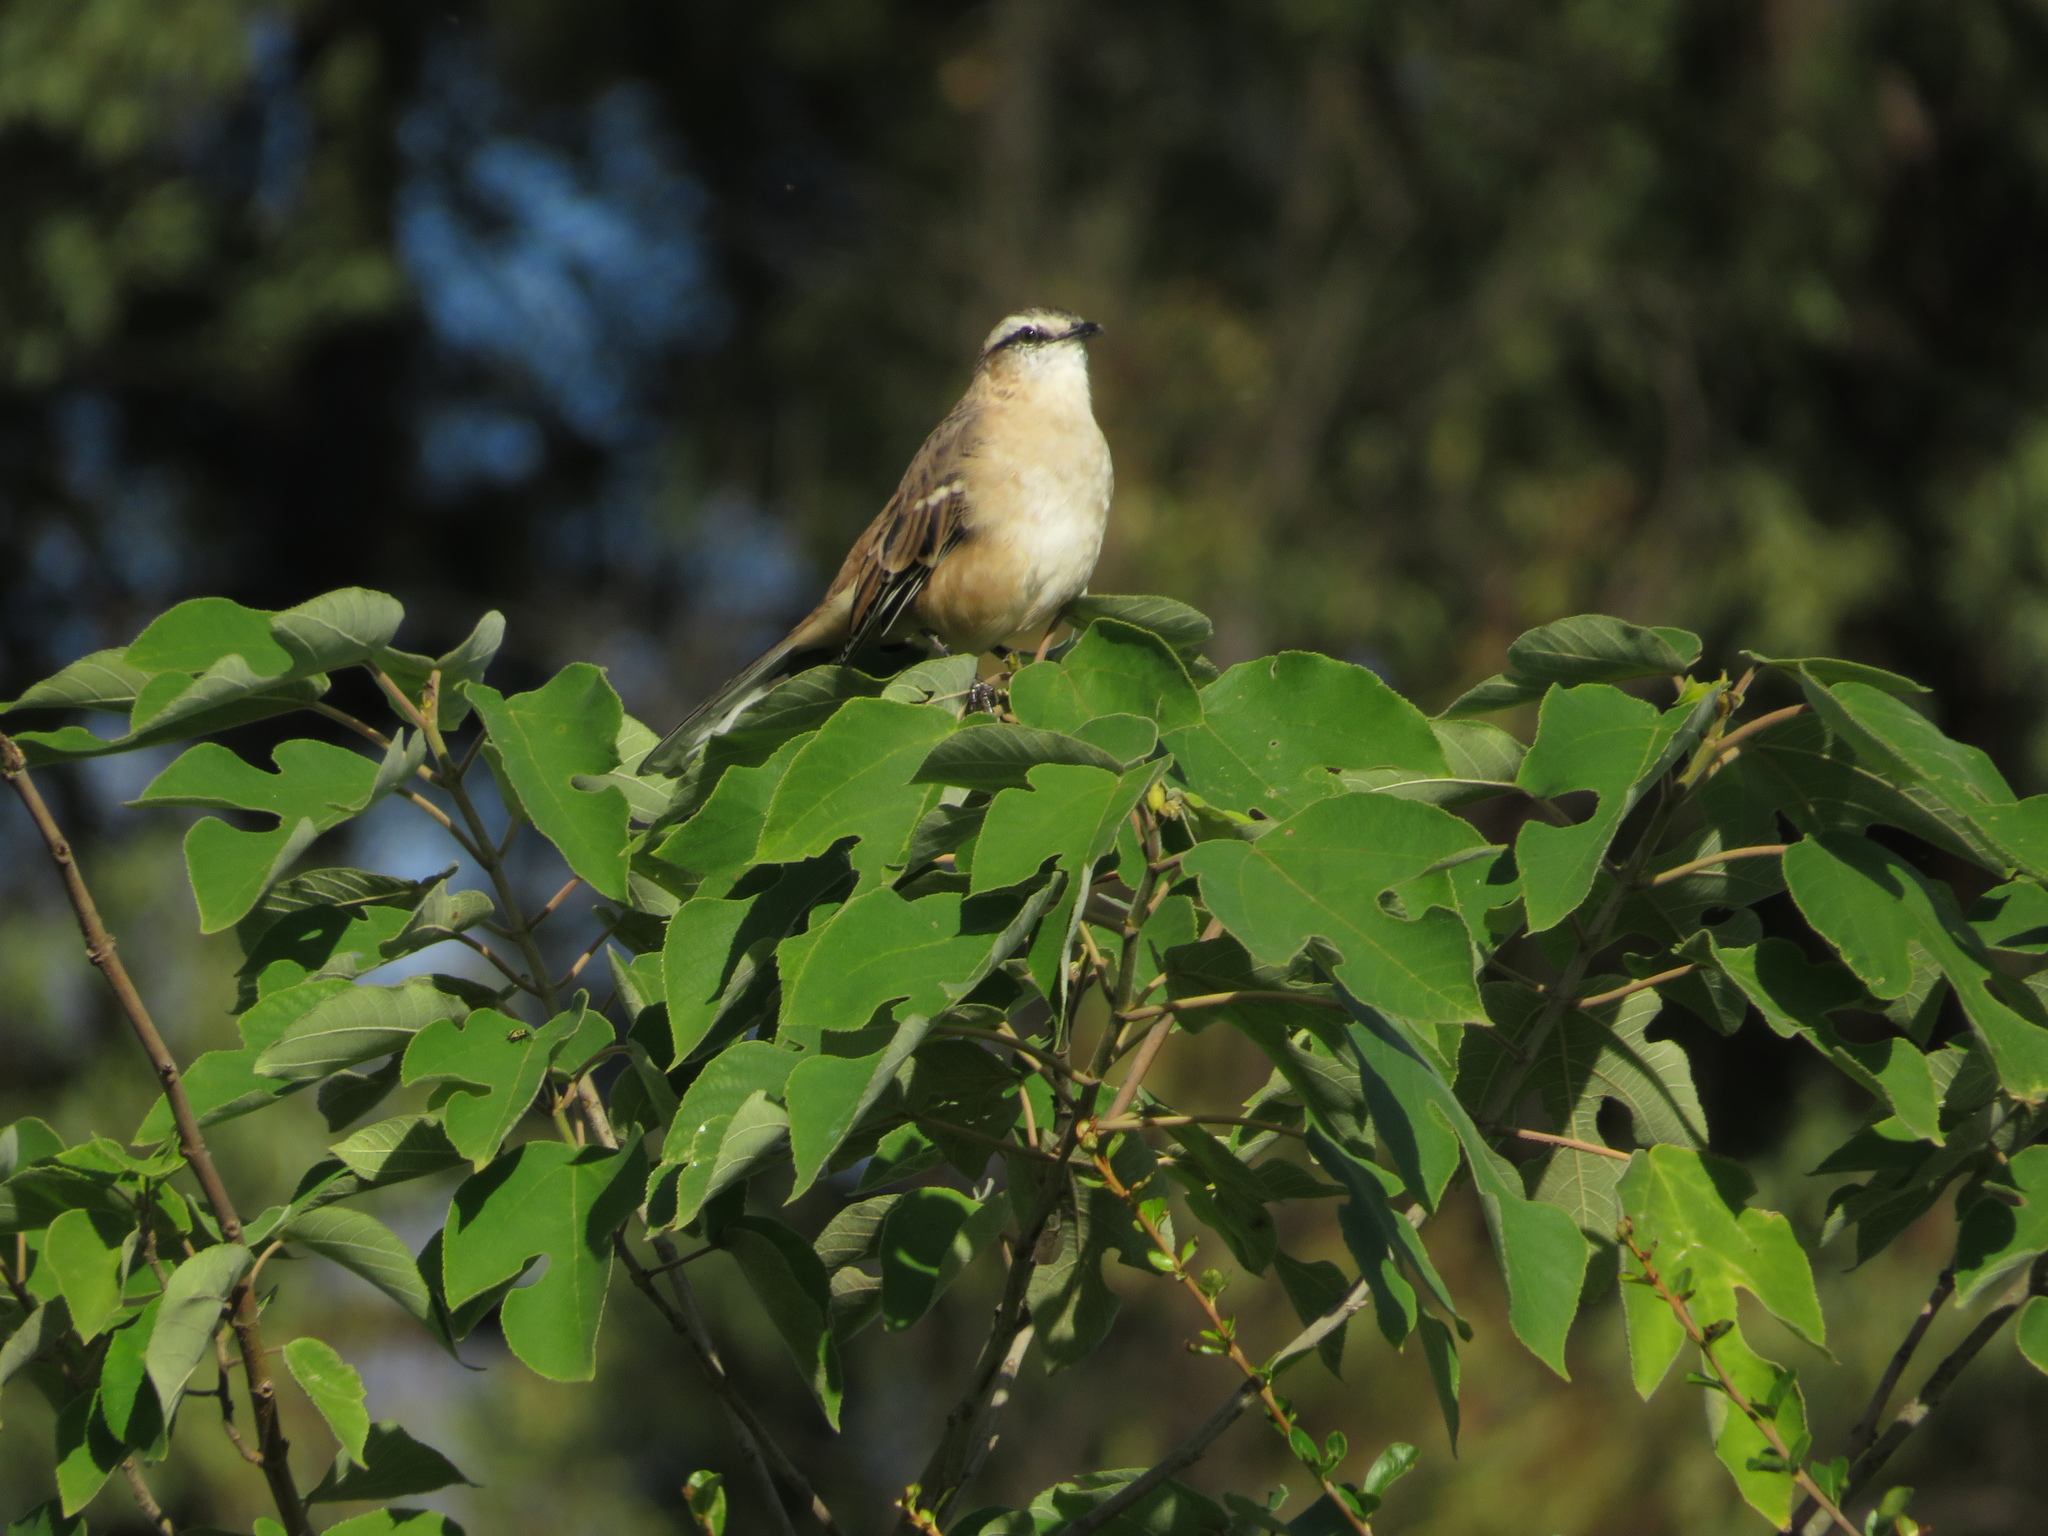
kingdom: Animalia
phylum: Chordata
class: Aves
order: Passeriformes
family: Mimidae
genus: Mimus
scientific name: Mimus saturninus
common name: Chalk-browed mockingbird
